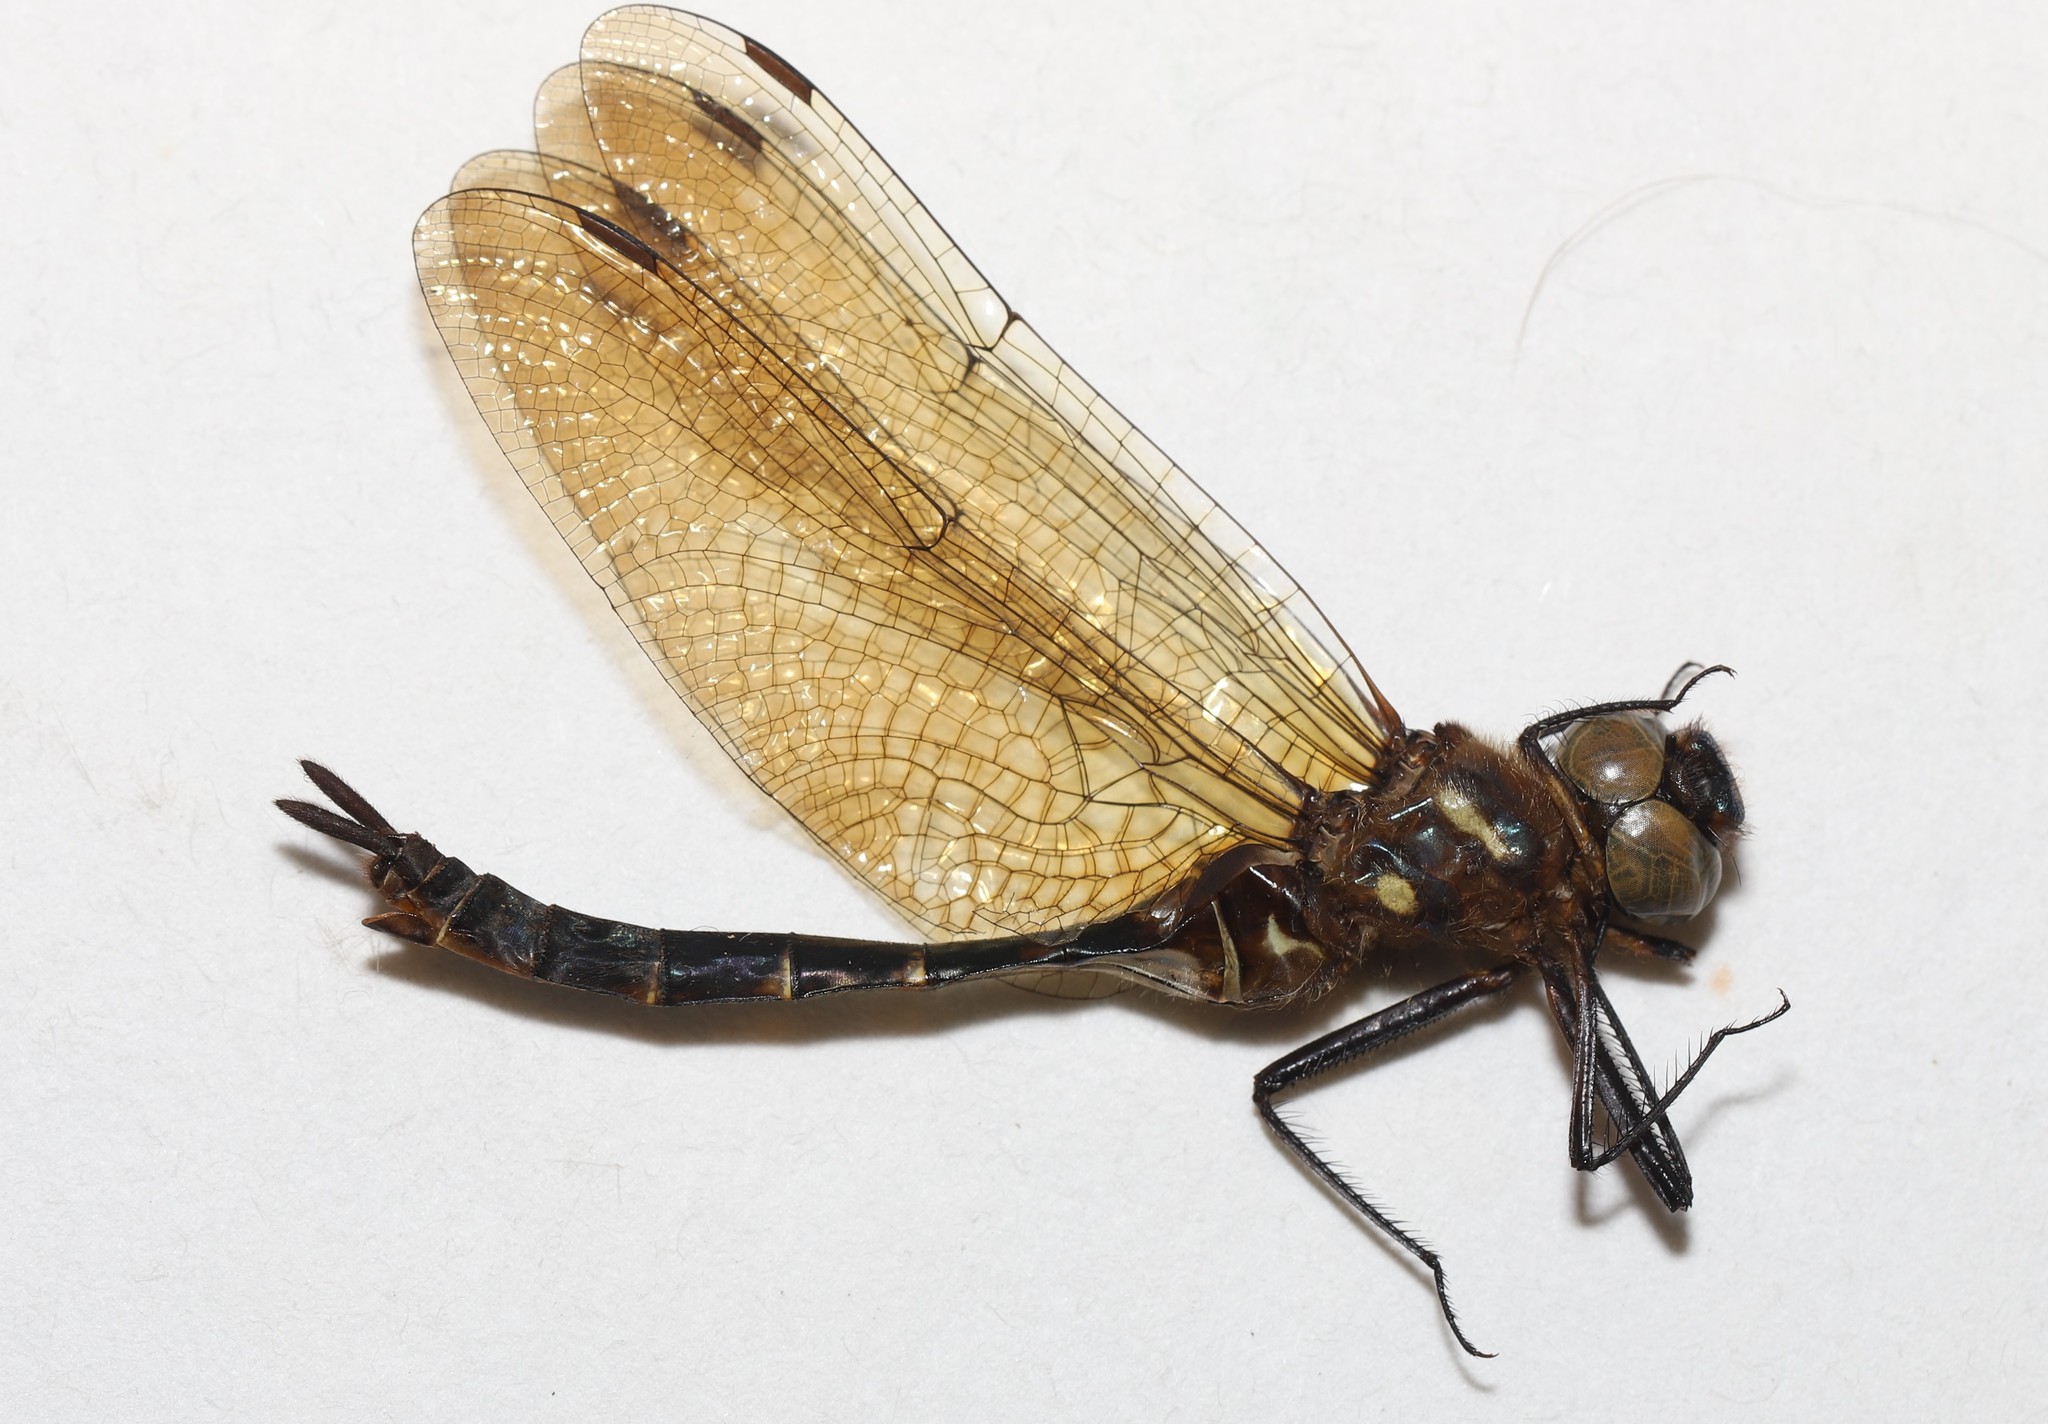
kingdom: Animalia
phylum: Arthropoda
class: Insecta
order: Odonata
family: Corduliidae
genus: Somatochlora
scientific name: Somatochlora walshii
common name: Brush-tipped emerald
